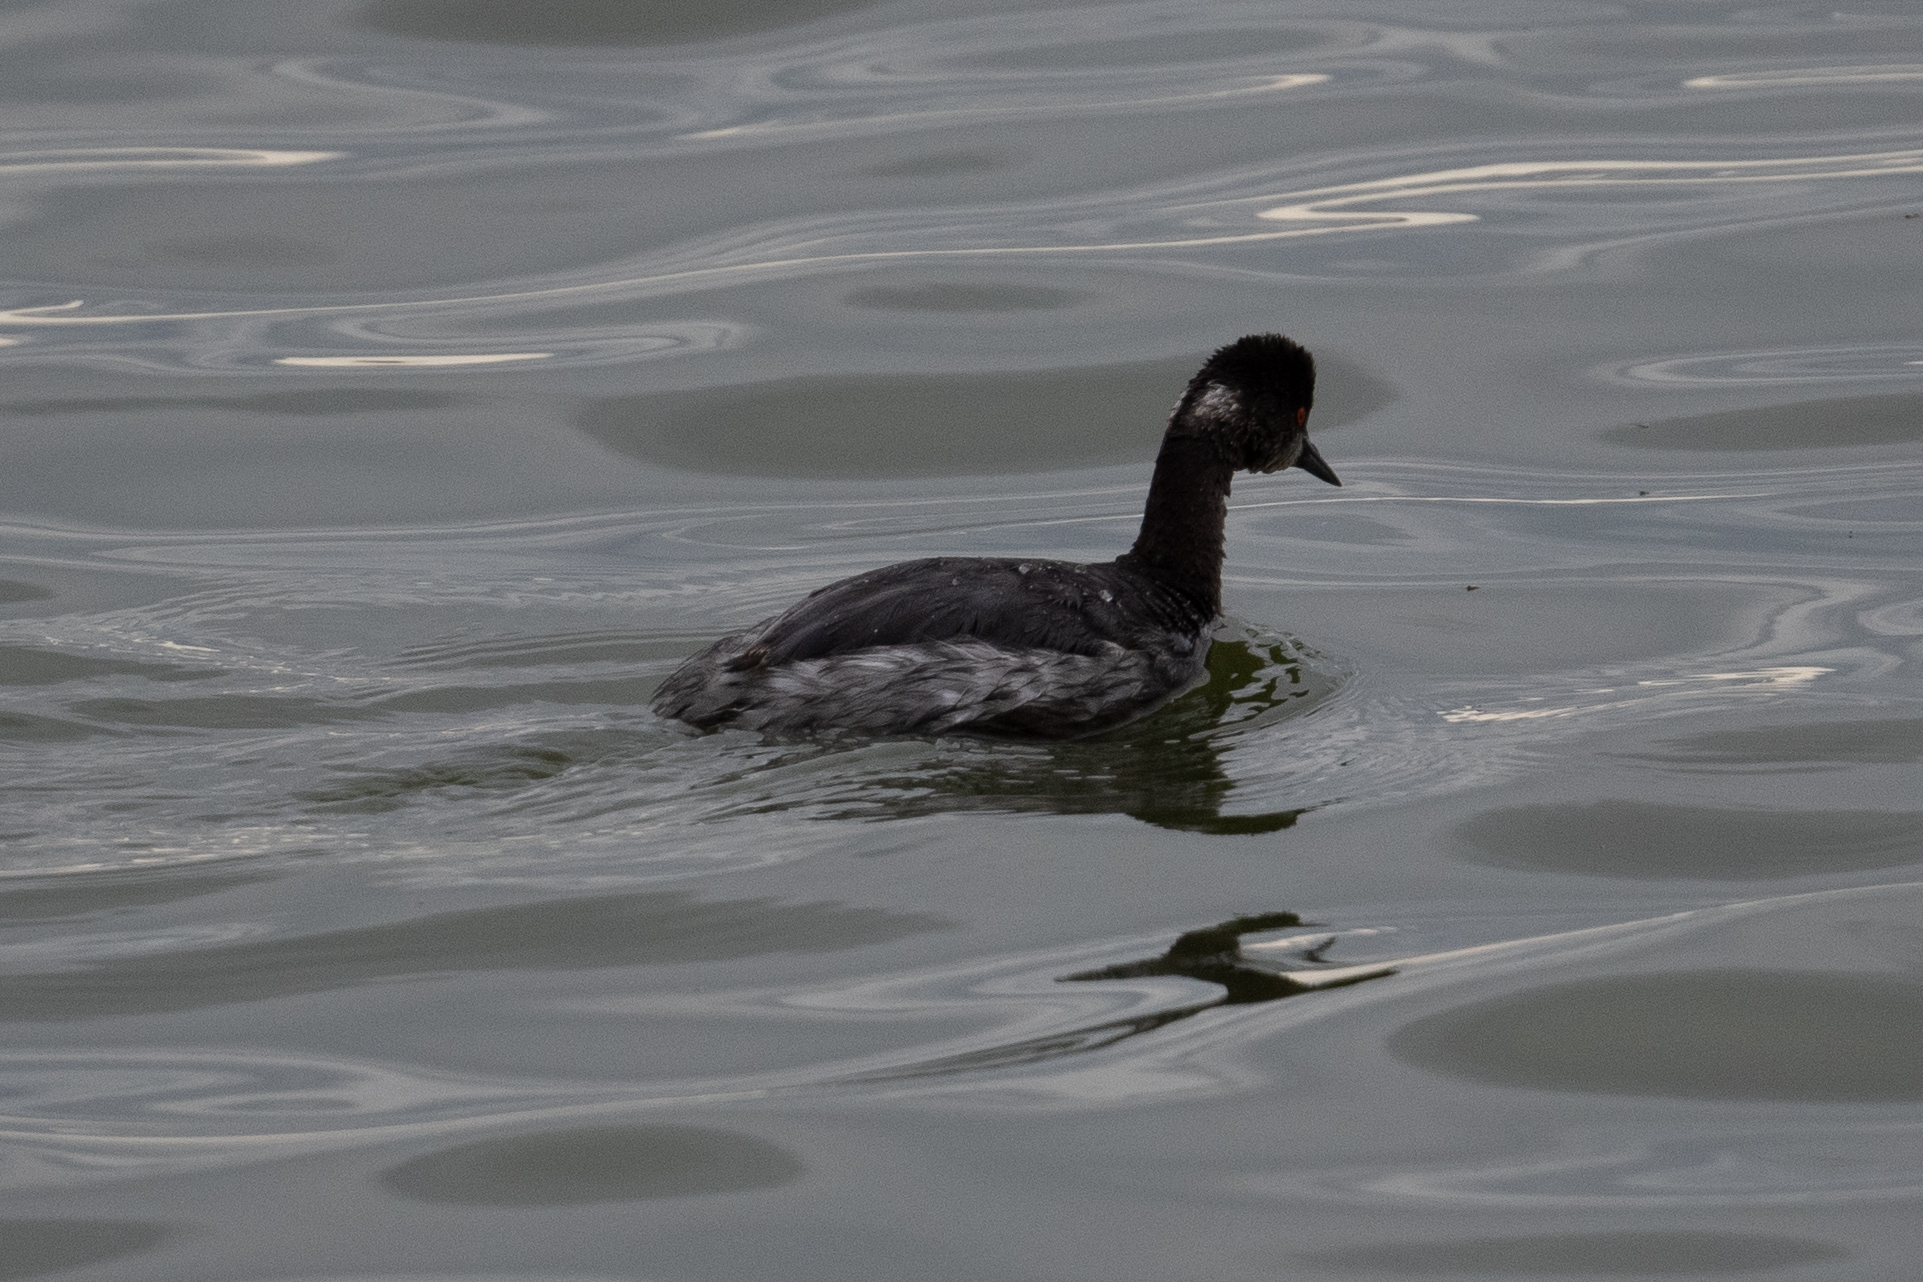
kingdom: Animalia
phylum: Chordata
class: Aves
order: Podicipediformes
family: Podicipedidae
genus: Podiceps
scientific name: Podiceps nigricollis
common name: Black-necked grebe
